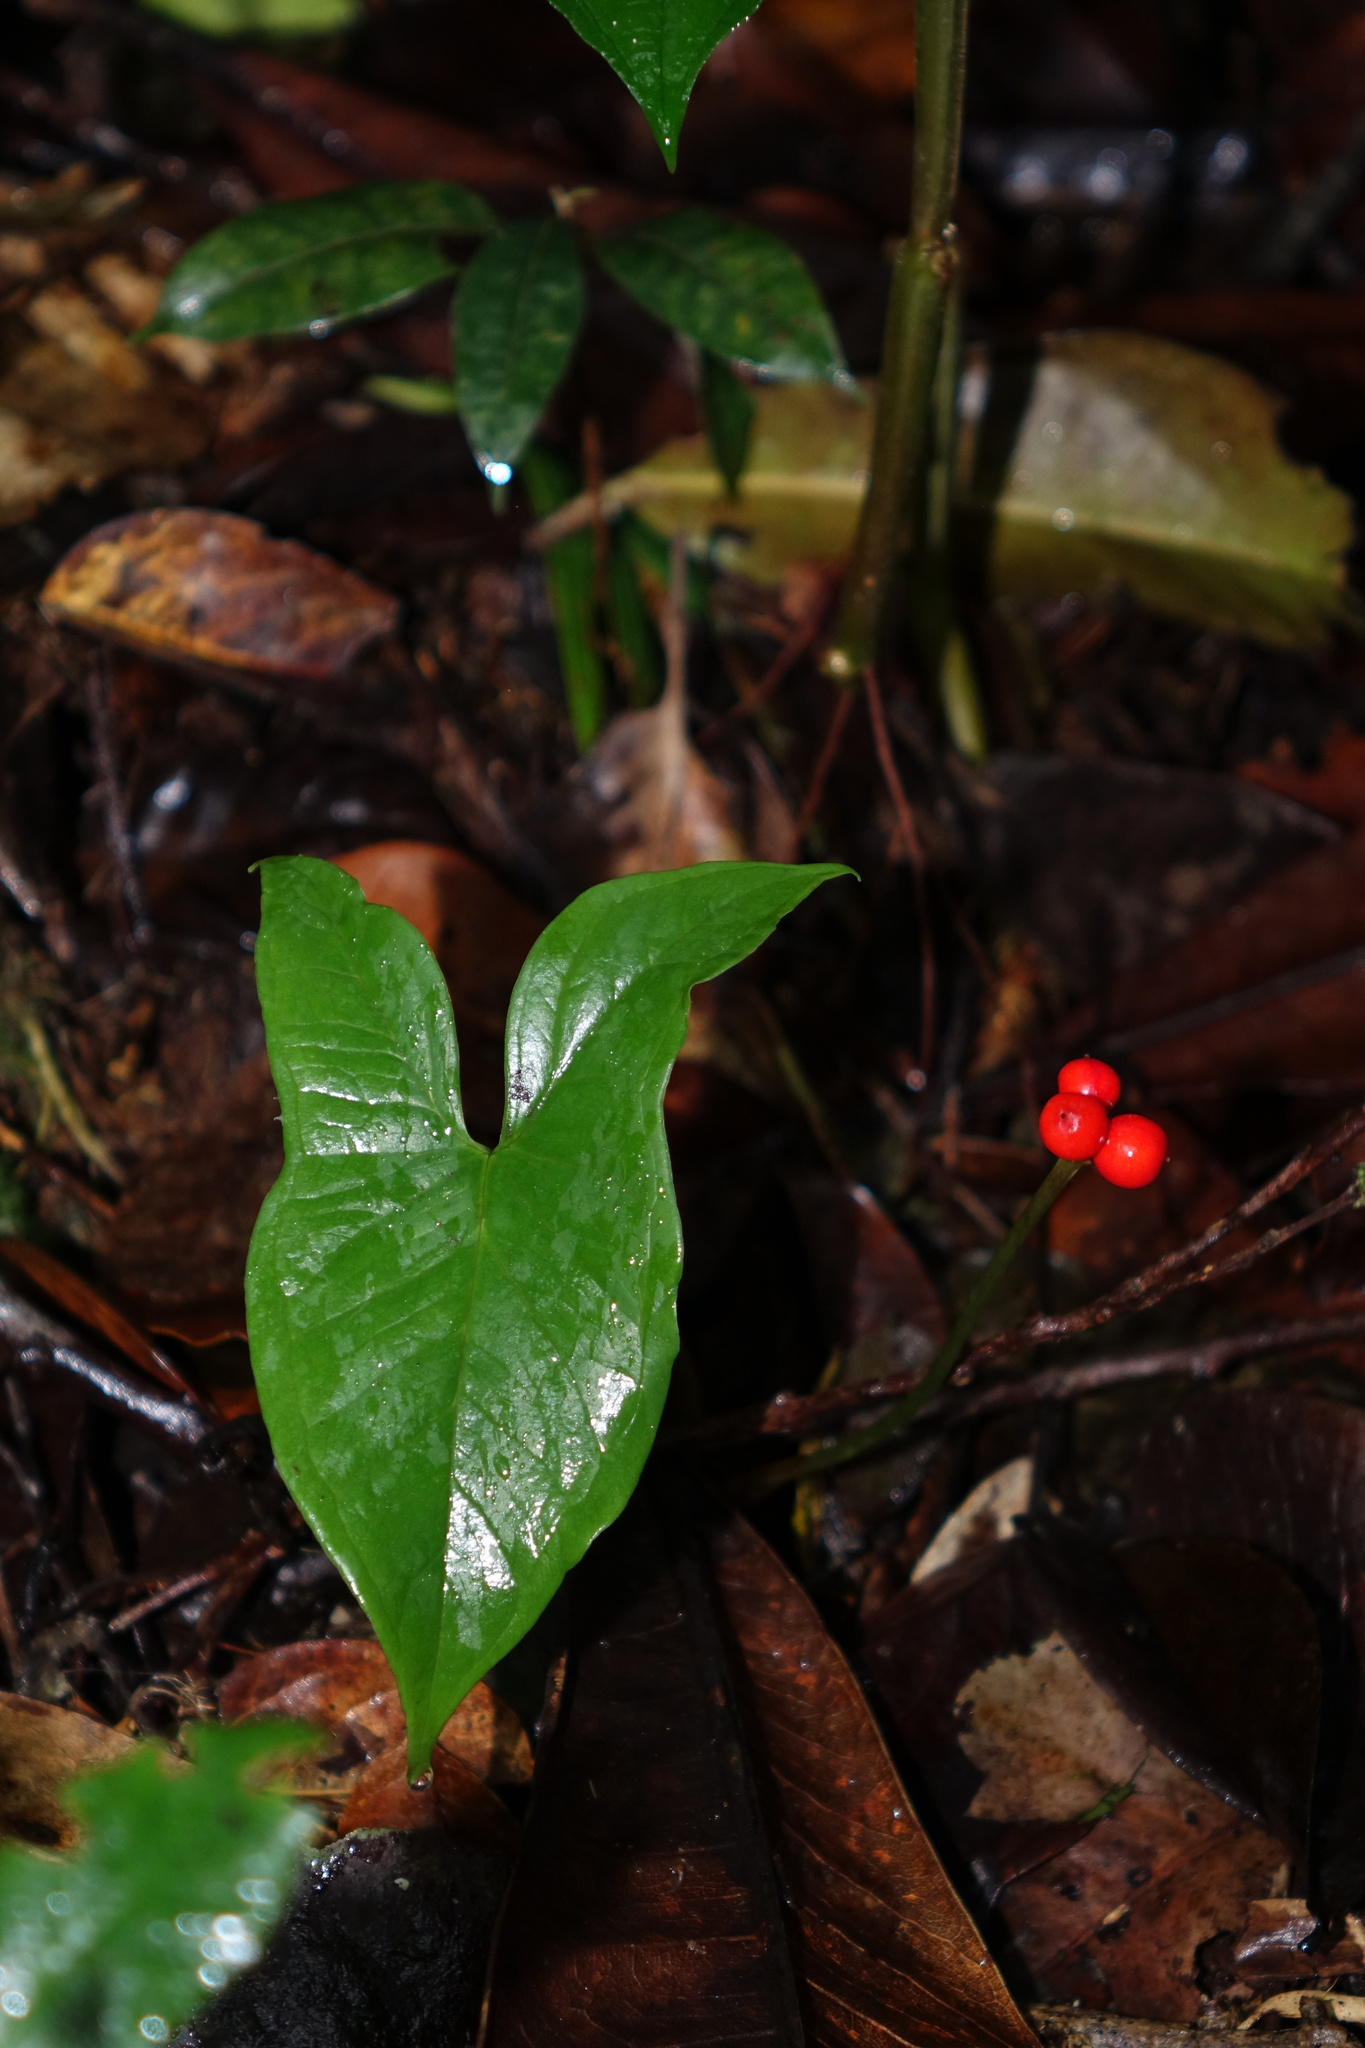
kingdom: Plantae
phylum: Tracheophyta
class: Liliopsida
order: Alismatales
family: Araceae
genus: Arophyton
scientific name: Arophyton rhizomatosum
